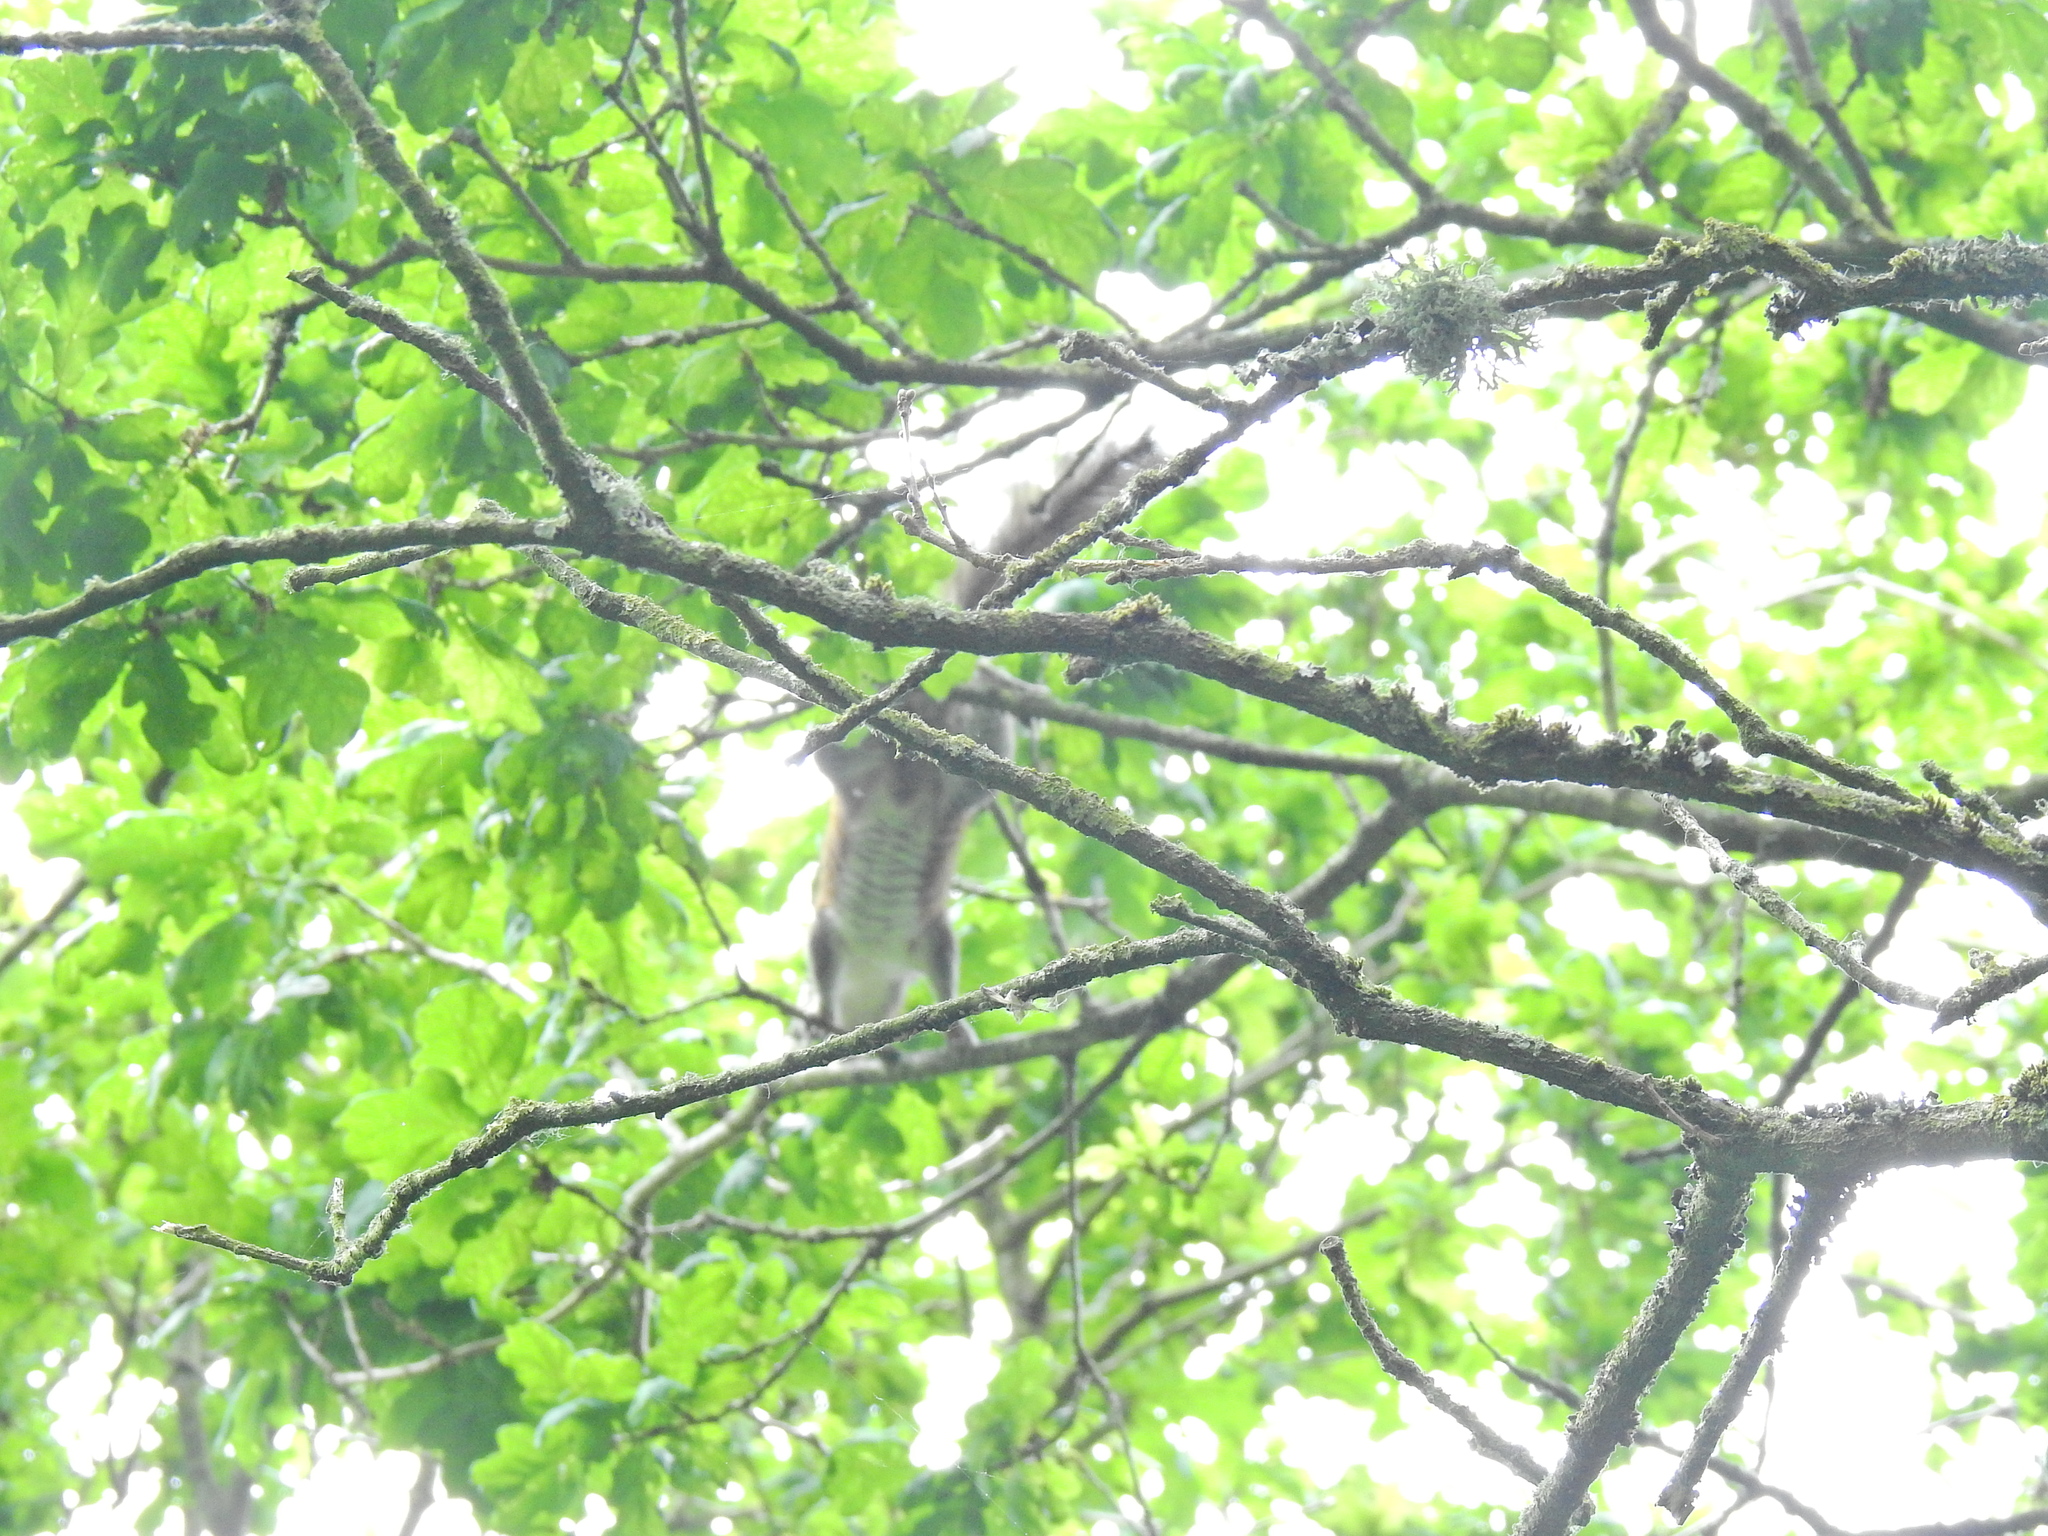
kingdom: Animalia
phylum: Chordata
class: Mammalia
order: Rodentia
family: Sciuridae
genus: Sciurus
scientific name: Sciurus carolinensis
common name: Eastern gray squirrel
